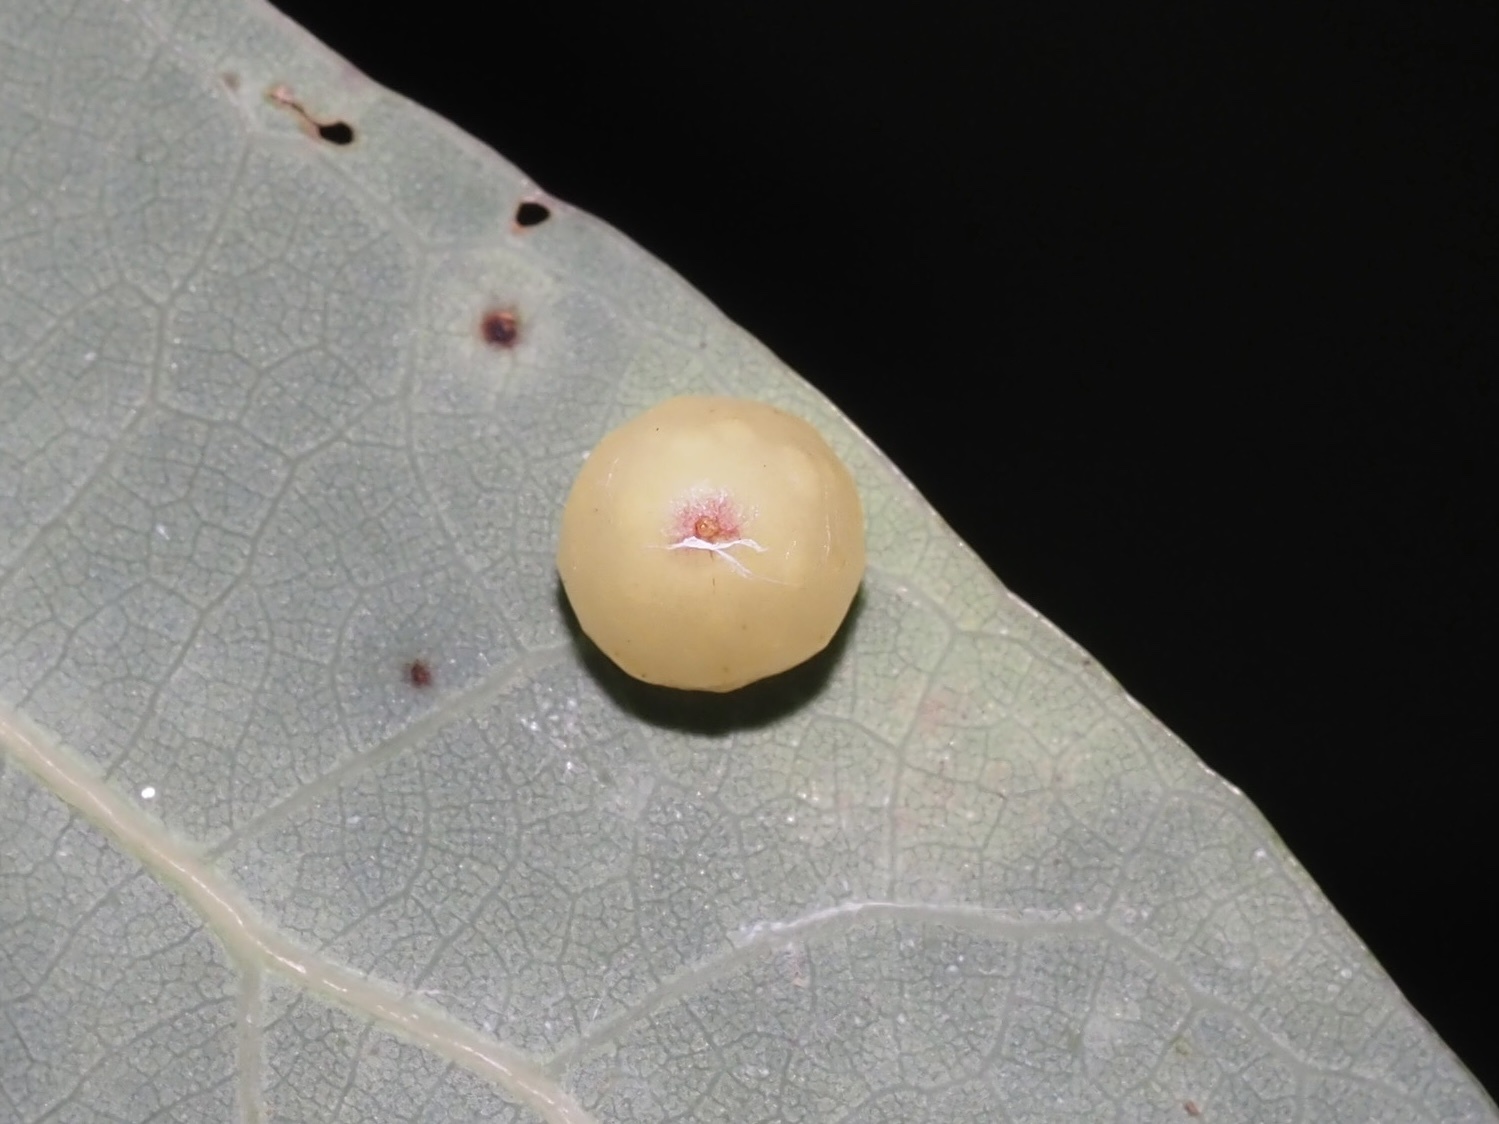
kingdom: Animalia
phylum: Arthropoda
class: Insecta
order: Hymenoptera
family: Cynipidae
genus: Andricus
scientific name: Andricus
